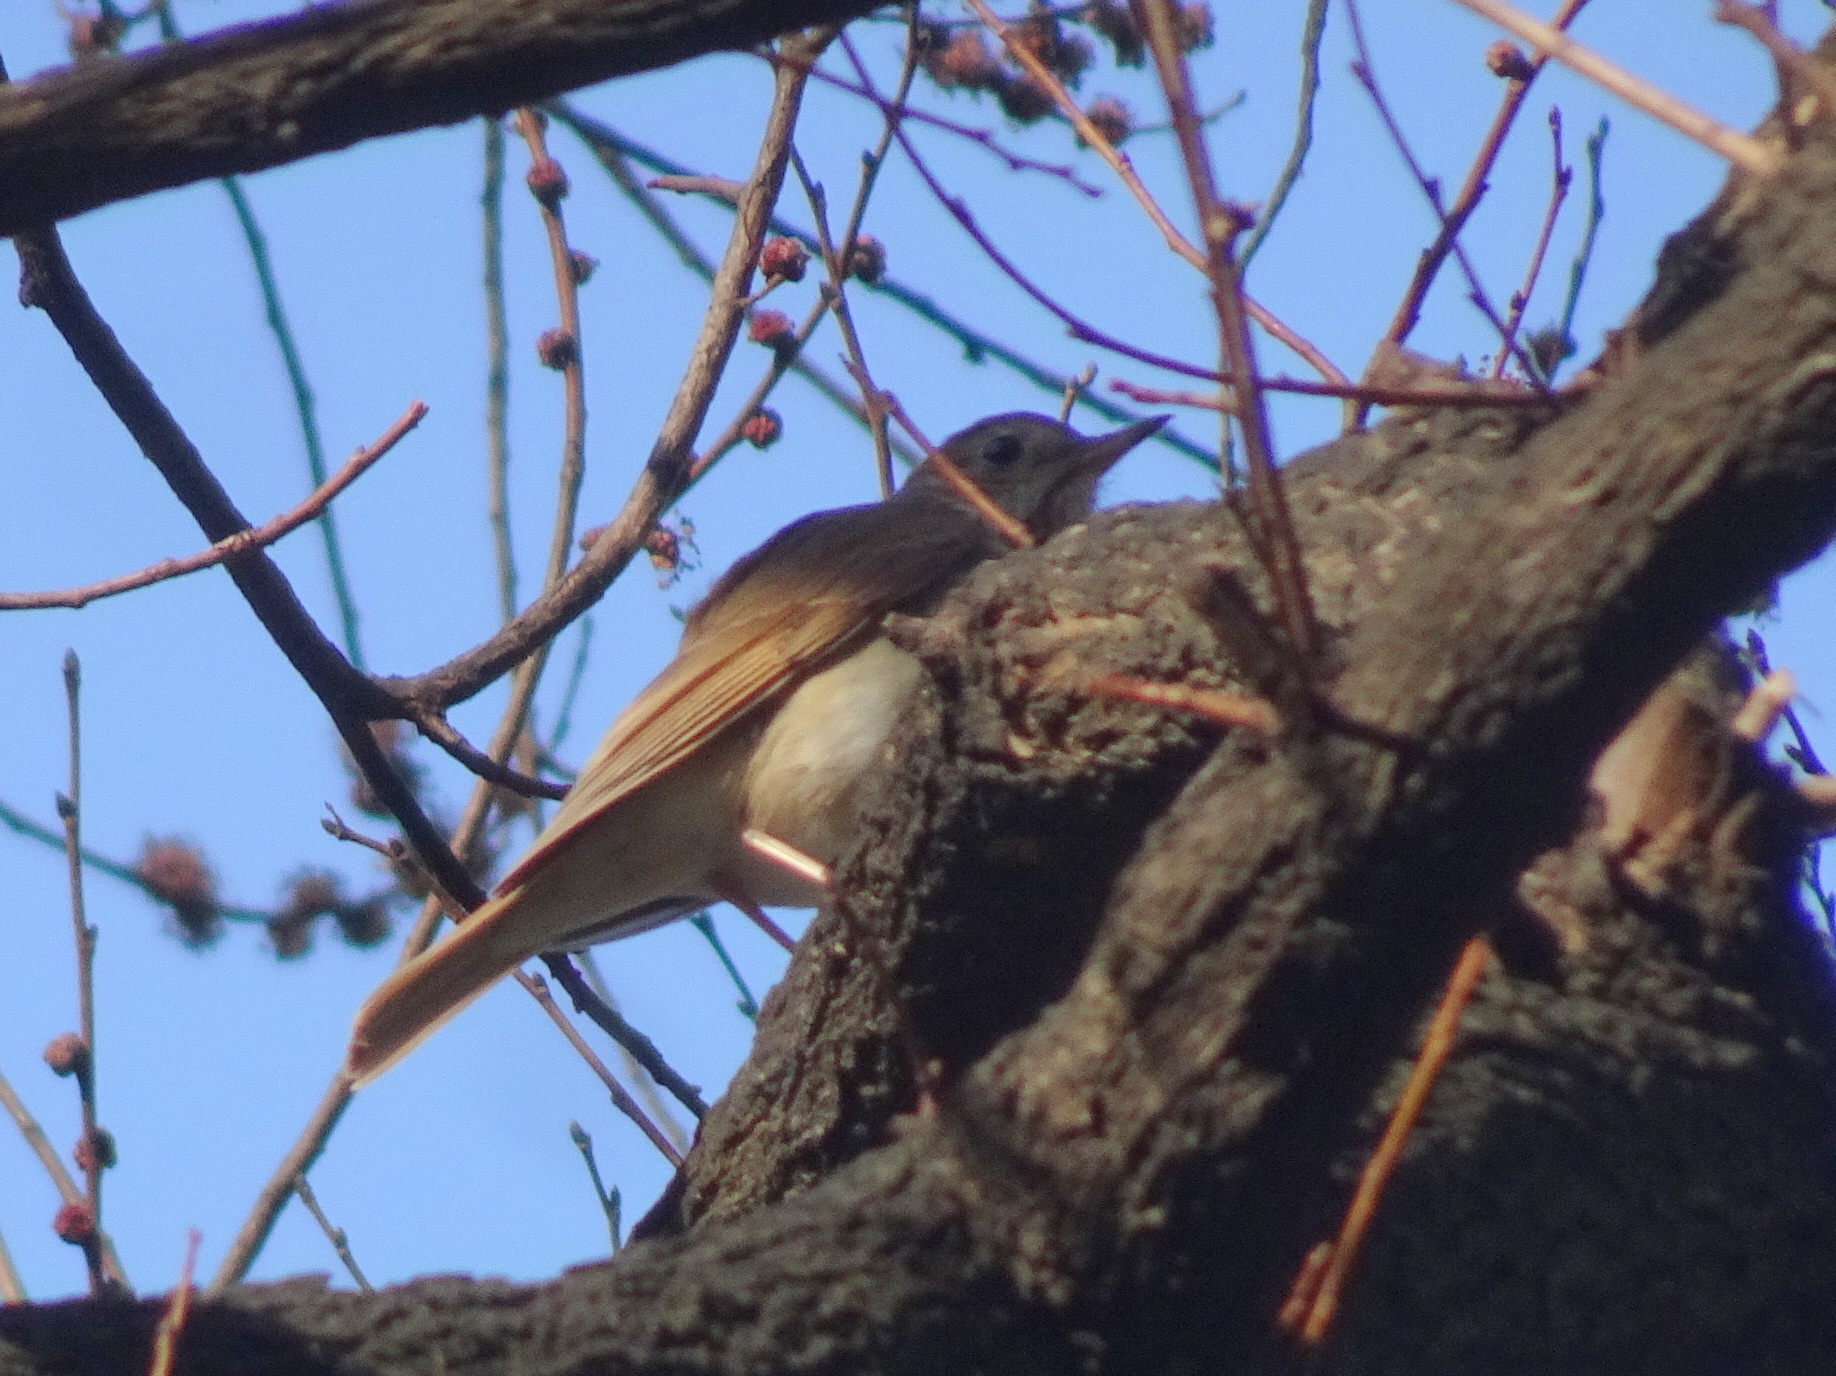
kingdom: Animalia
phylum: Chordata
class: Aves
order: Passeriformes
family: Turdidae
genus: Catharus
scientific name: Catharus guttatus
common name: Hermit thrush
